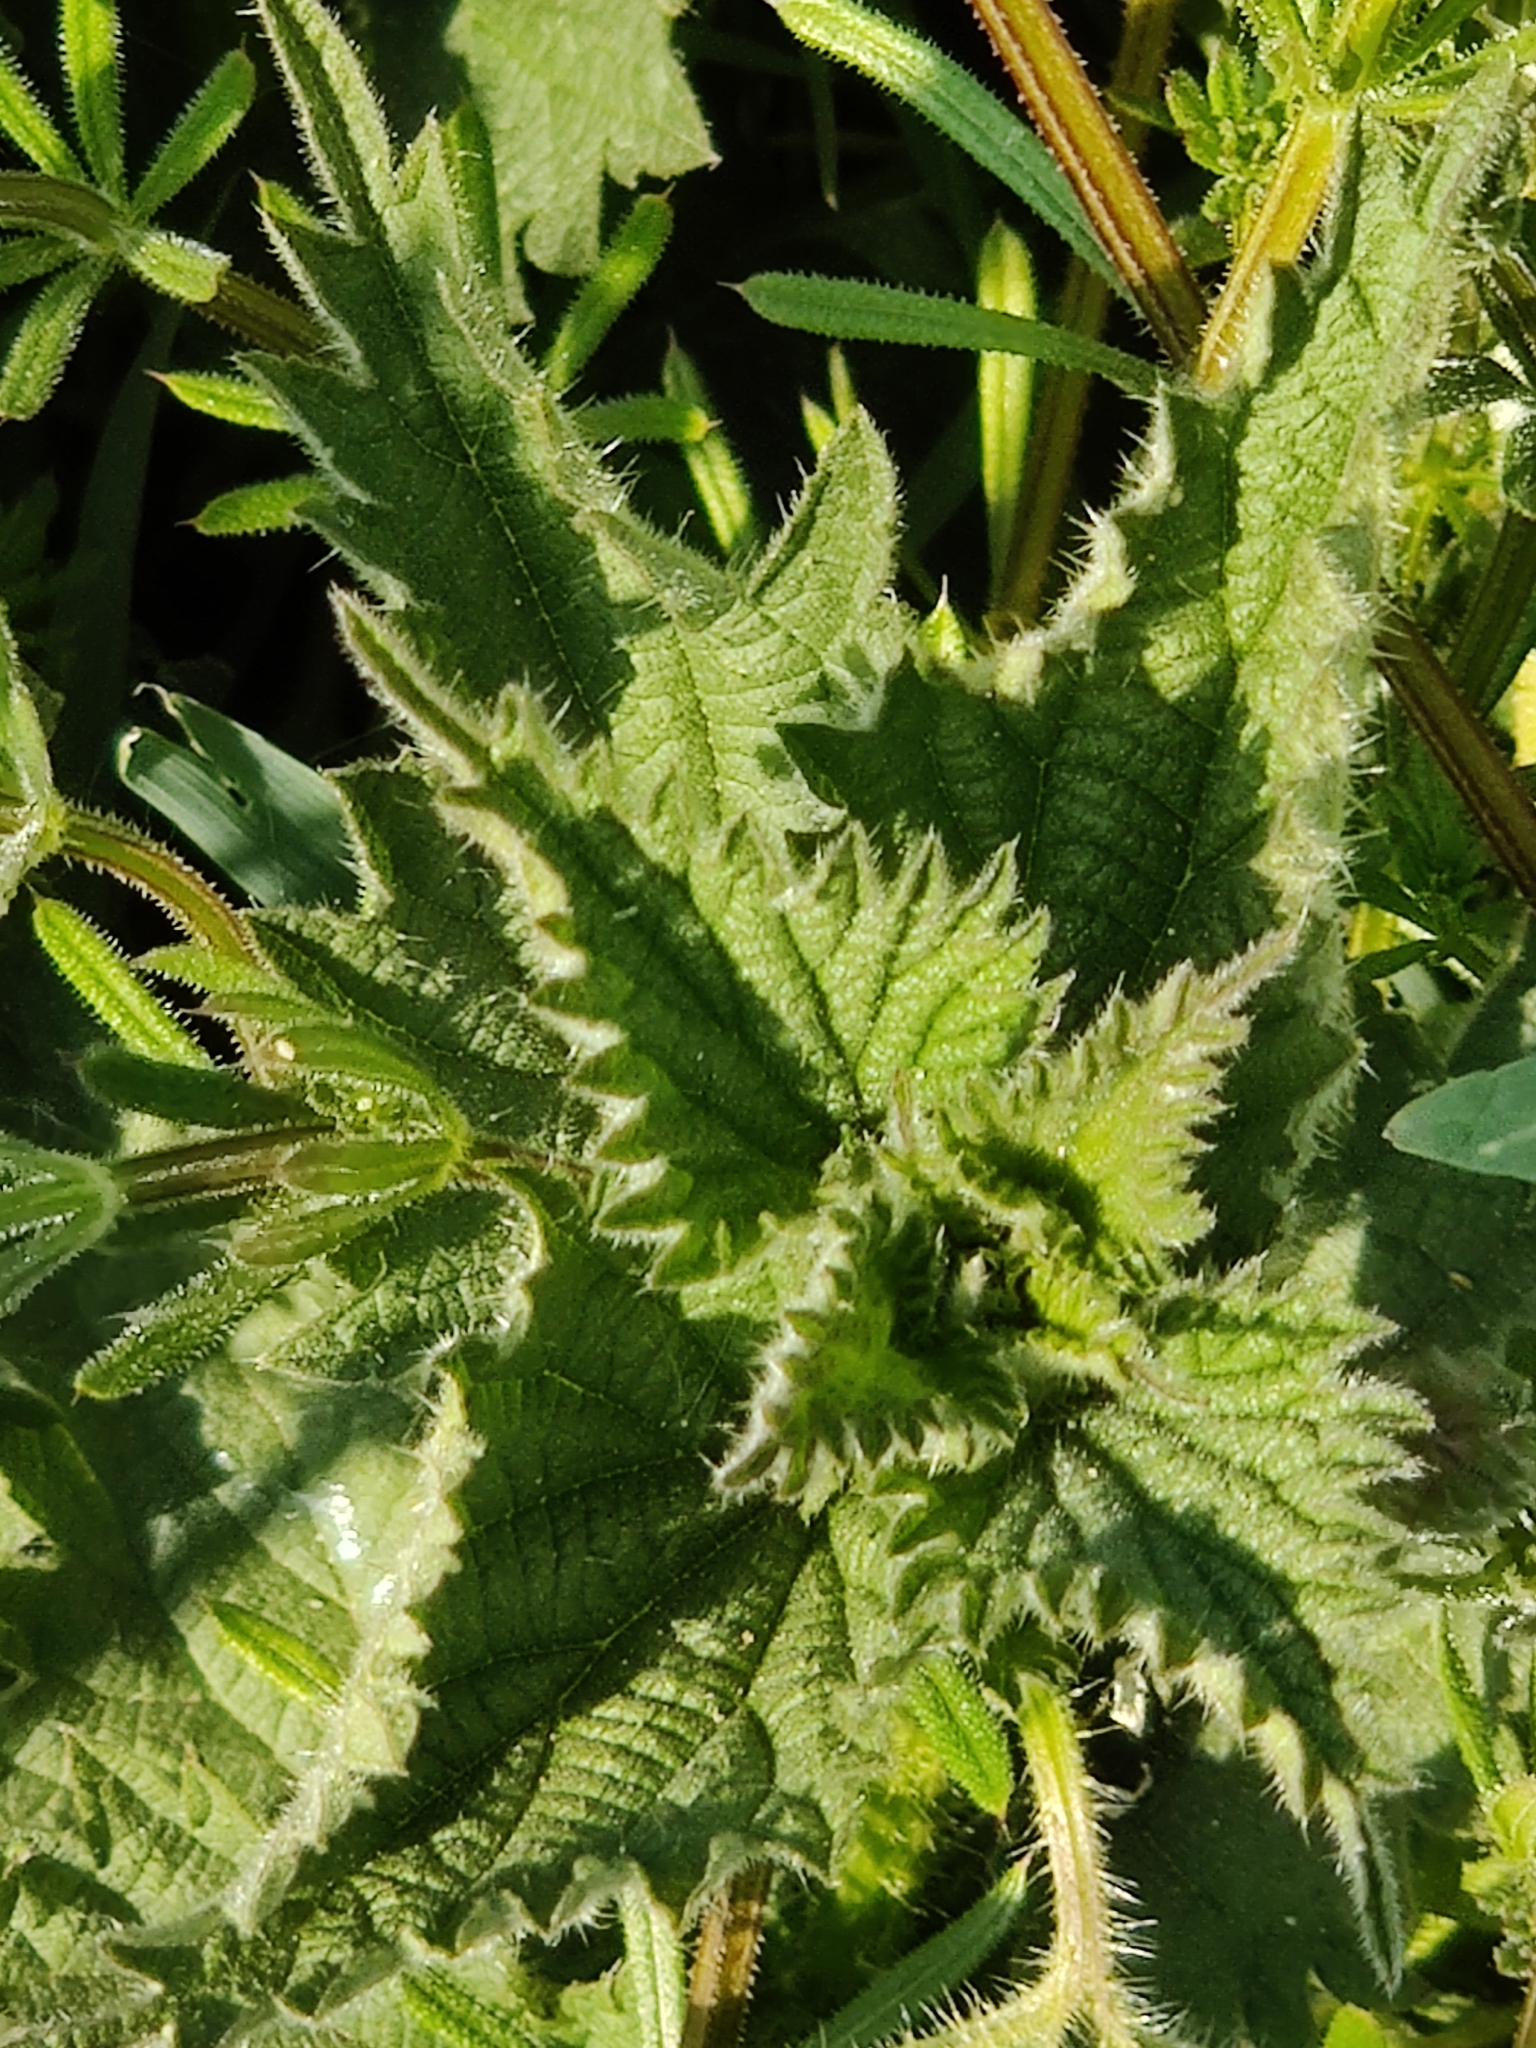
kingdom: Plantae
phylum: Tracheophyta
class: Magnoliopsida
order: Rosales
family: Urticaceae
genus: Urtica
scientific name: Urtica dioica
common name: Common nettle
